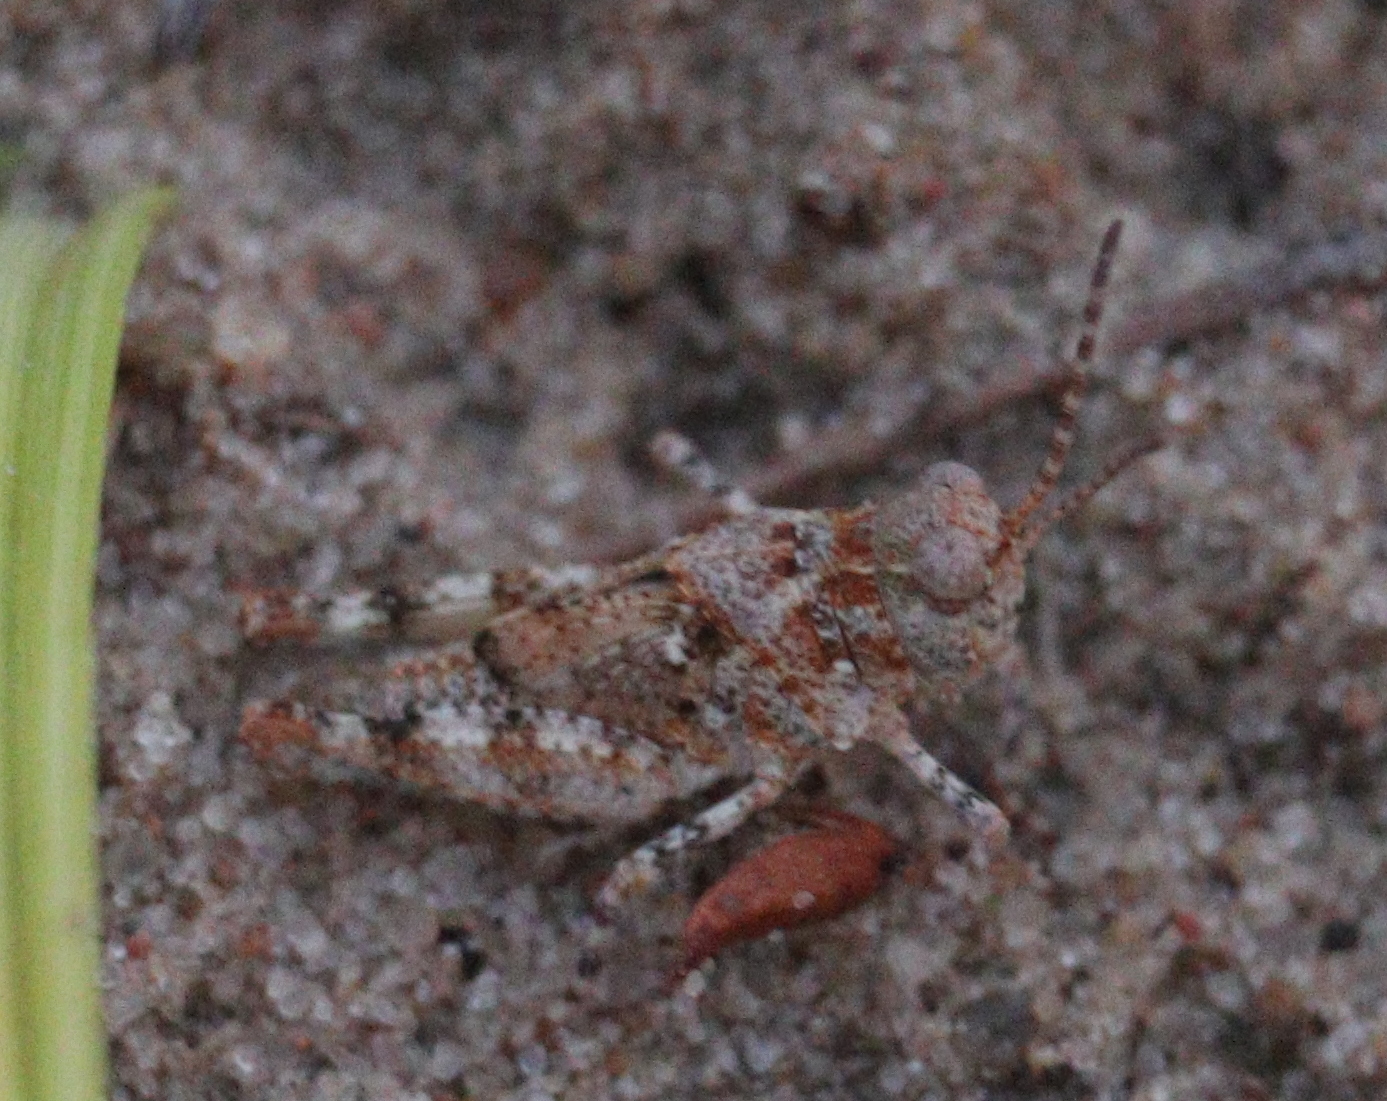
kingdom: Animalia
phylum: Arthropoda
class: Insecta
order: Orthoptera
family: Acrididae
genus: Sphingonotus
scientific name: Sphingonotus caerulans
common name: Blue-winged locust
